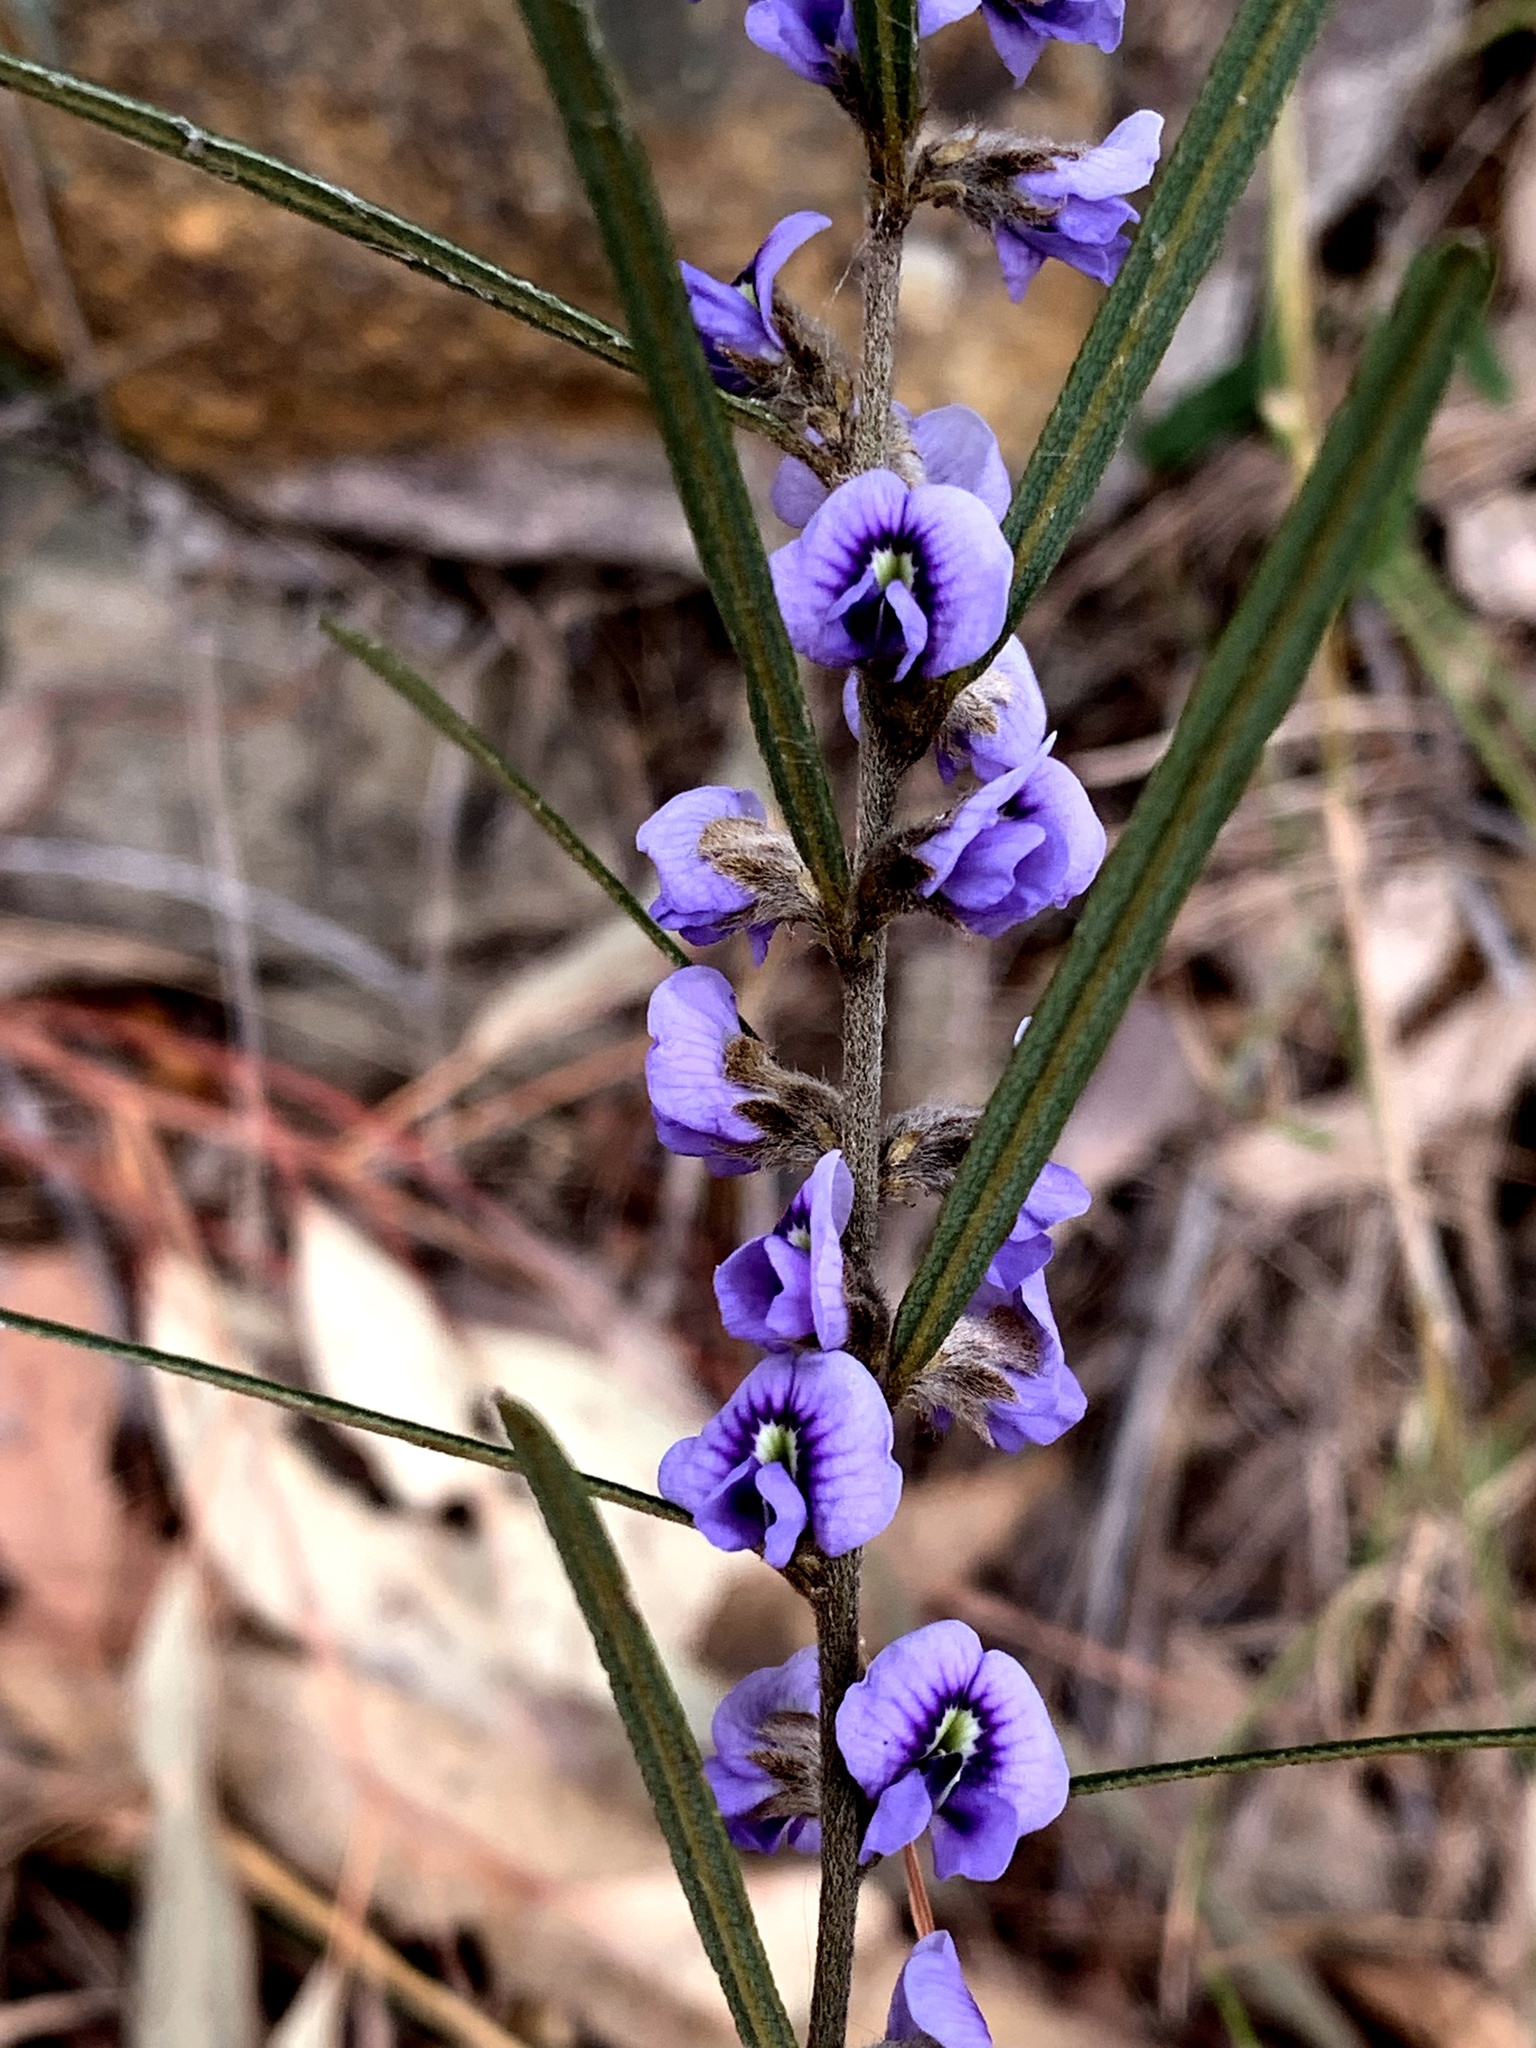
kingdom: Plantae
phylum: Tracheophyta
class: Magnoliopsida
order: Fabales
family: Fabaceae
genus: Hovea
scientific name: Hovea linearis
